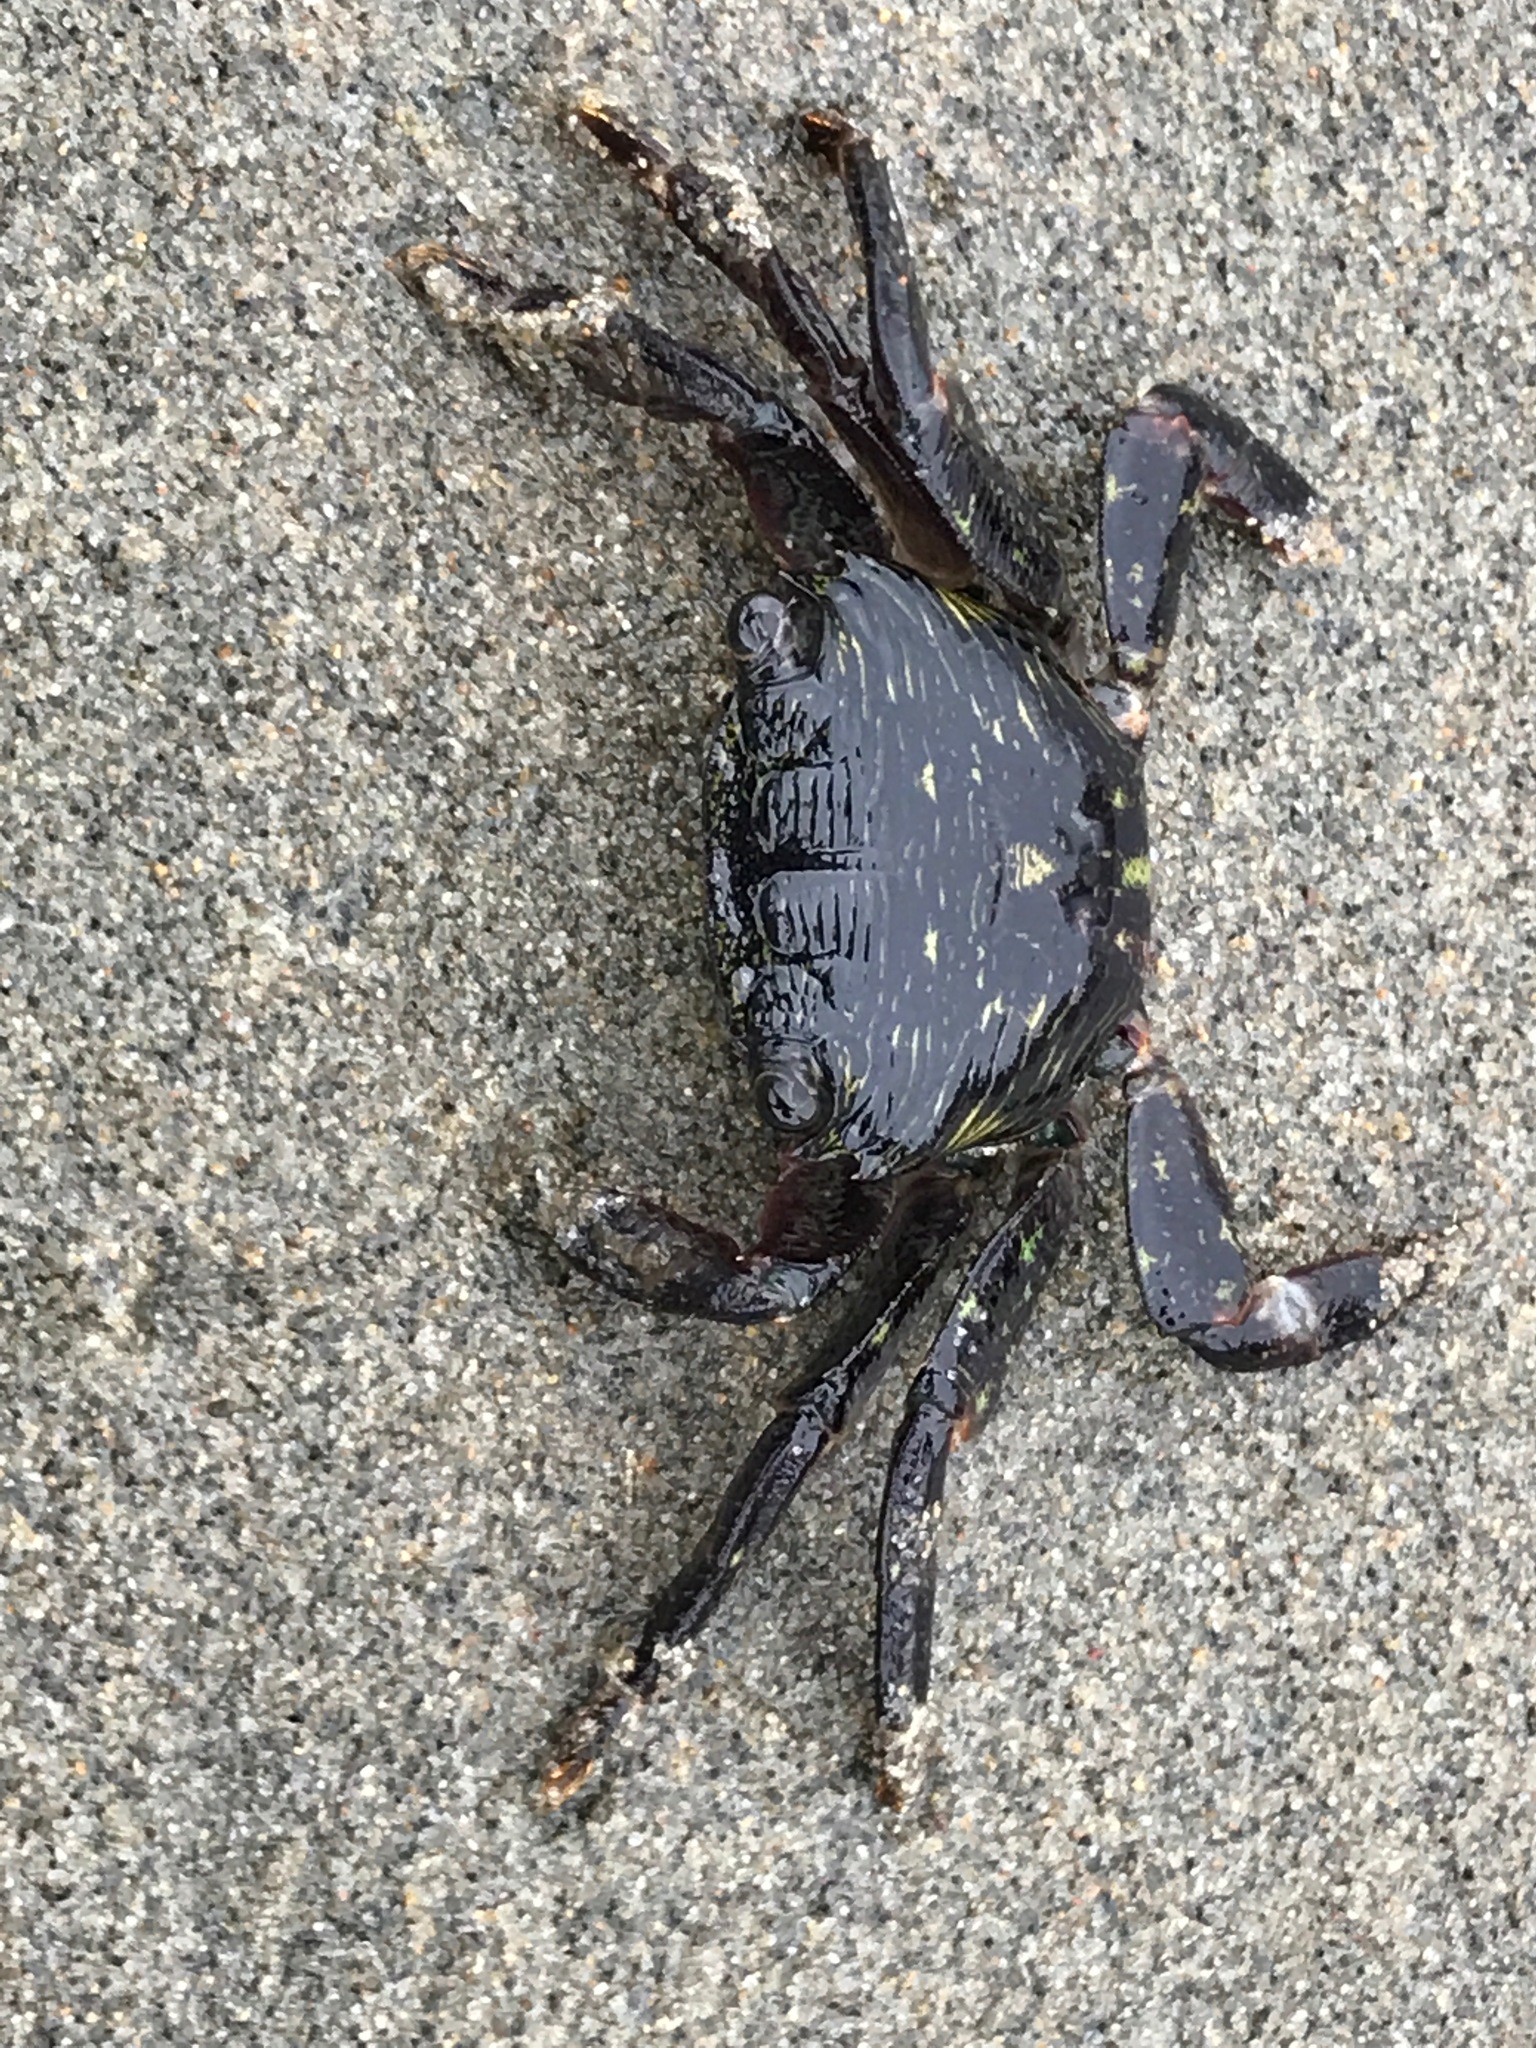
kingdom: Animalia
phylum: Arthropoda
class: Malacostraca
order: Decapoda
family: Grapsidae
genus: Pachygrapsus
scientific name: Pachygrapsus crassipes
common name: Striped shore crab
